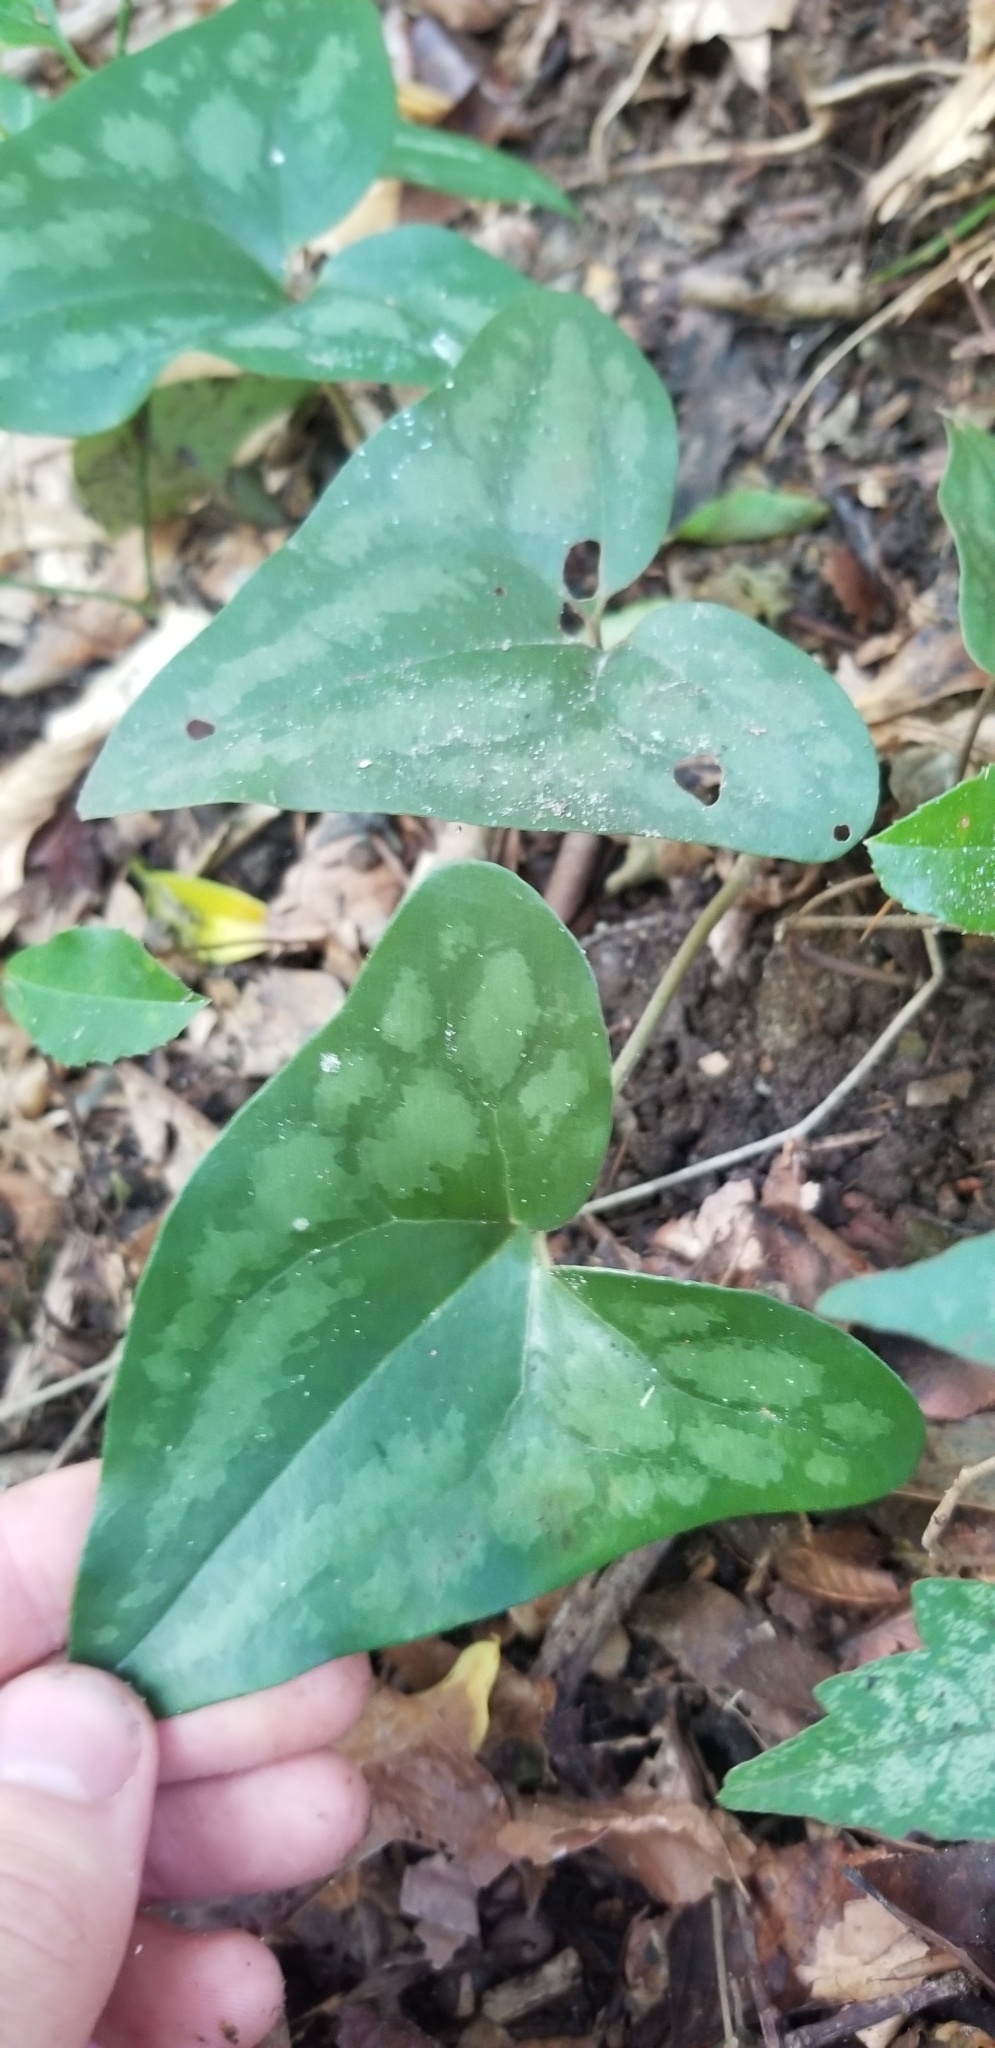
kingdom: Plantae
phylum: Tracheophyta
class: Magnoliopsida
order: Piperales
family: Aristolochiaceae
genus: Hexastylis
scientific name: Hexastylis arifolia
